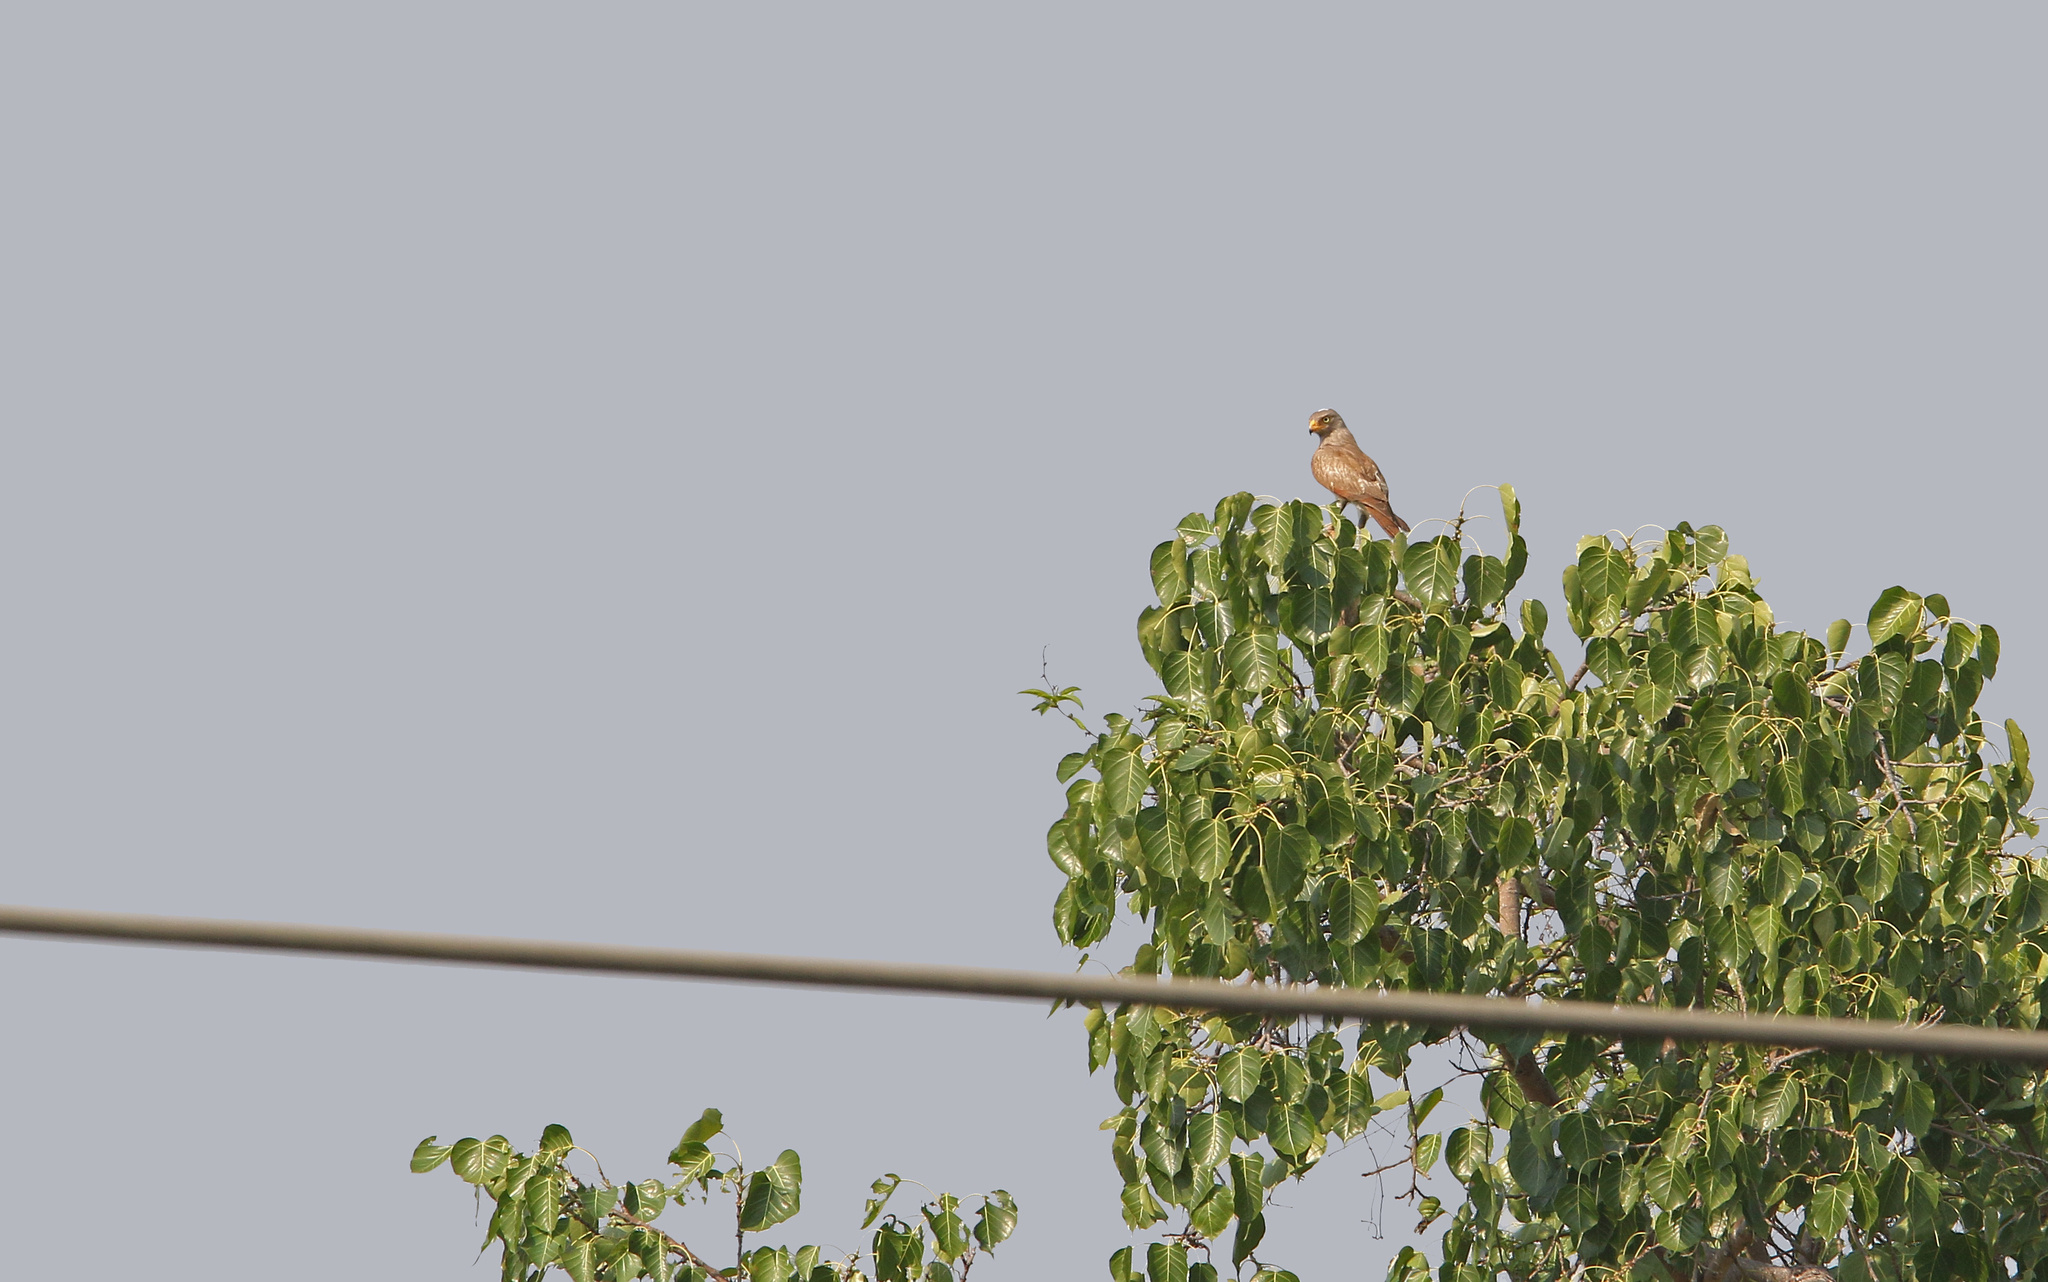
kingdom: Animalia
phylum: Chordata
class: Aves
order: Accipitriformes
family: Accipitridae
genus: Butastur
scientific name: Butastur liventer
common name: Rufous-winged buzzard
